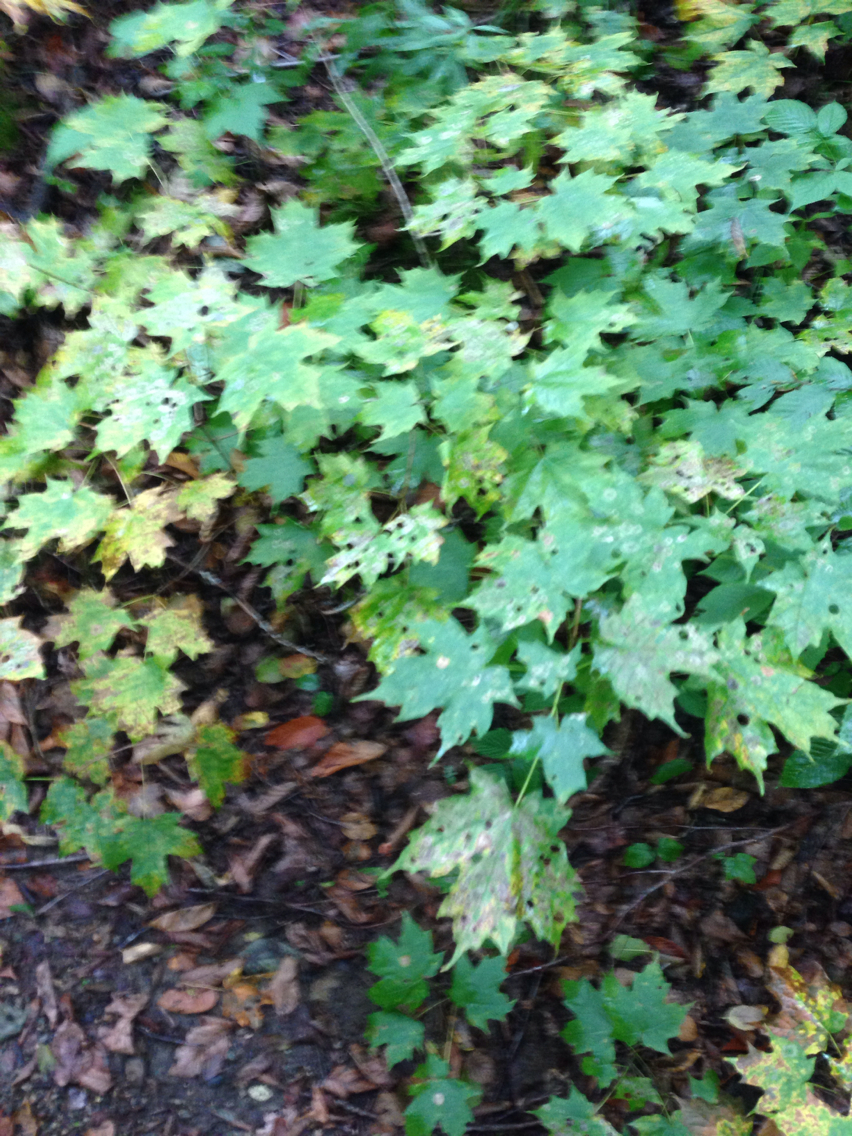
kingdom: Plantae
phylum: Tracheophyta
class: Magnoliopsida
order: Sapindales
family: Sapindaceae
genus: Acer
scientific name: Acer saccharum
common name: Sugar maple
